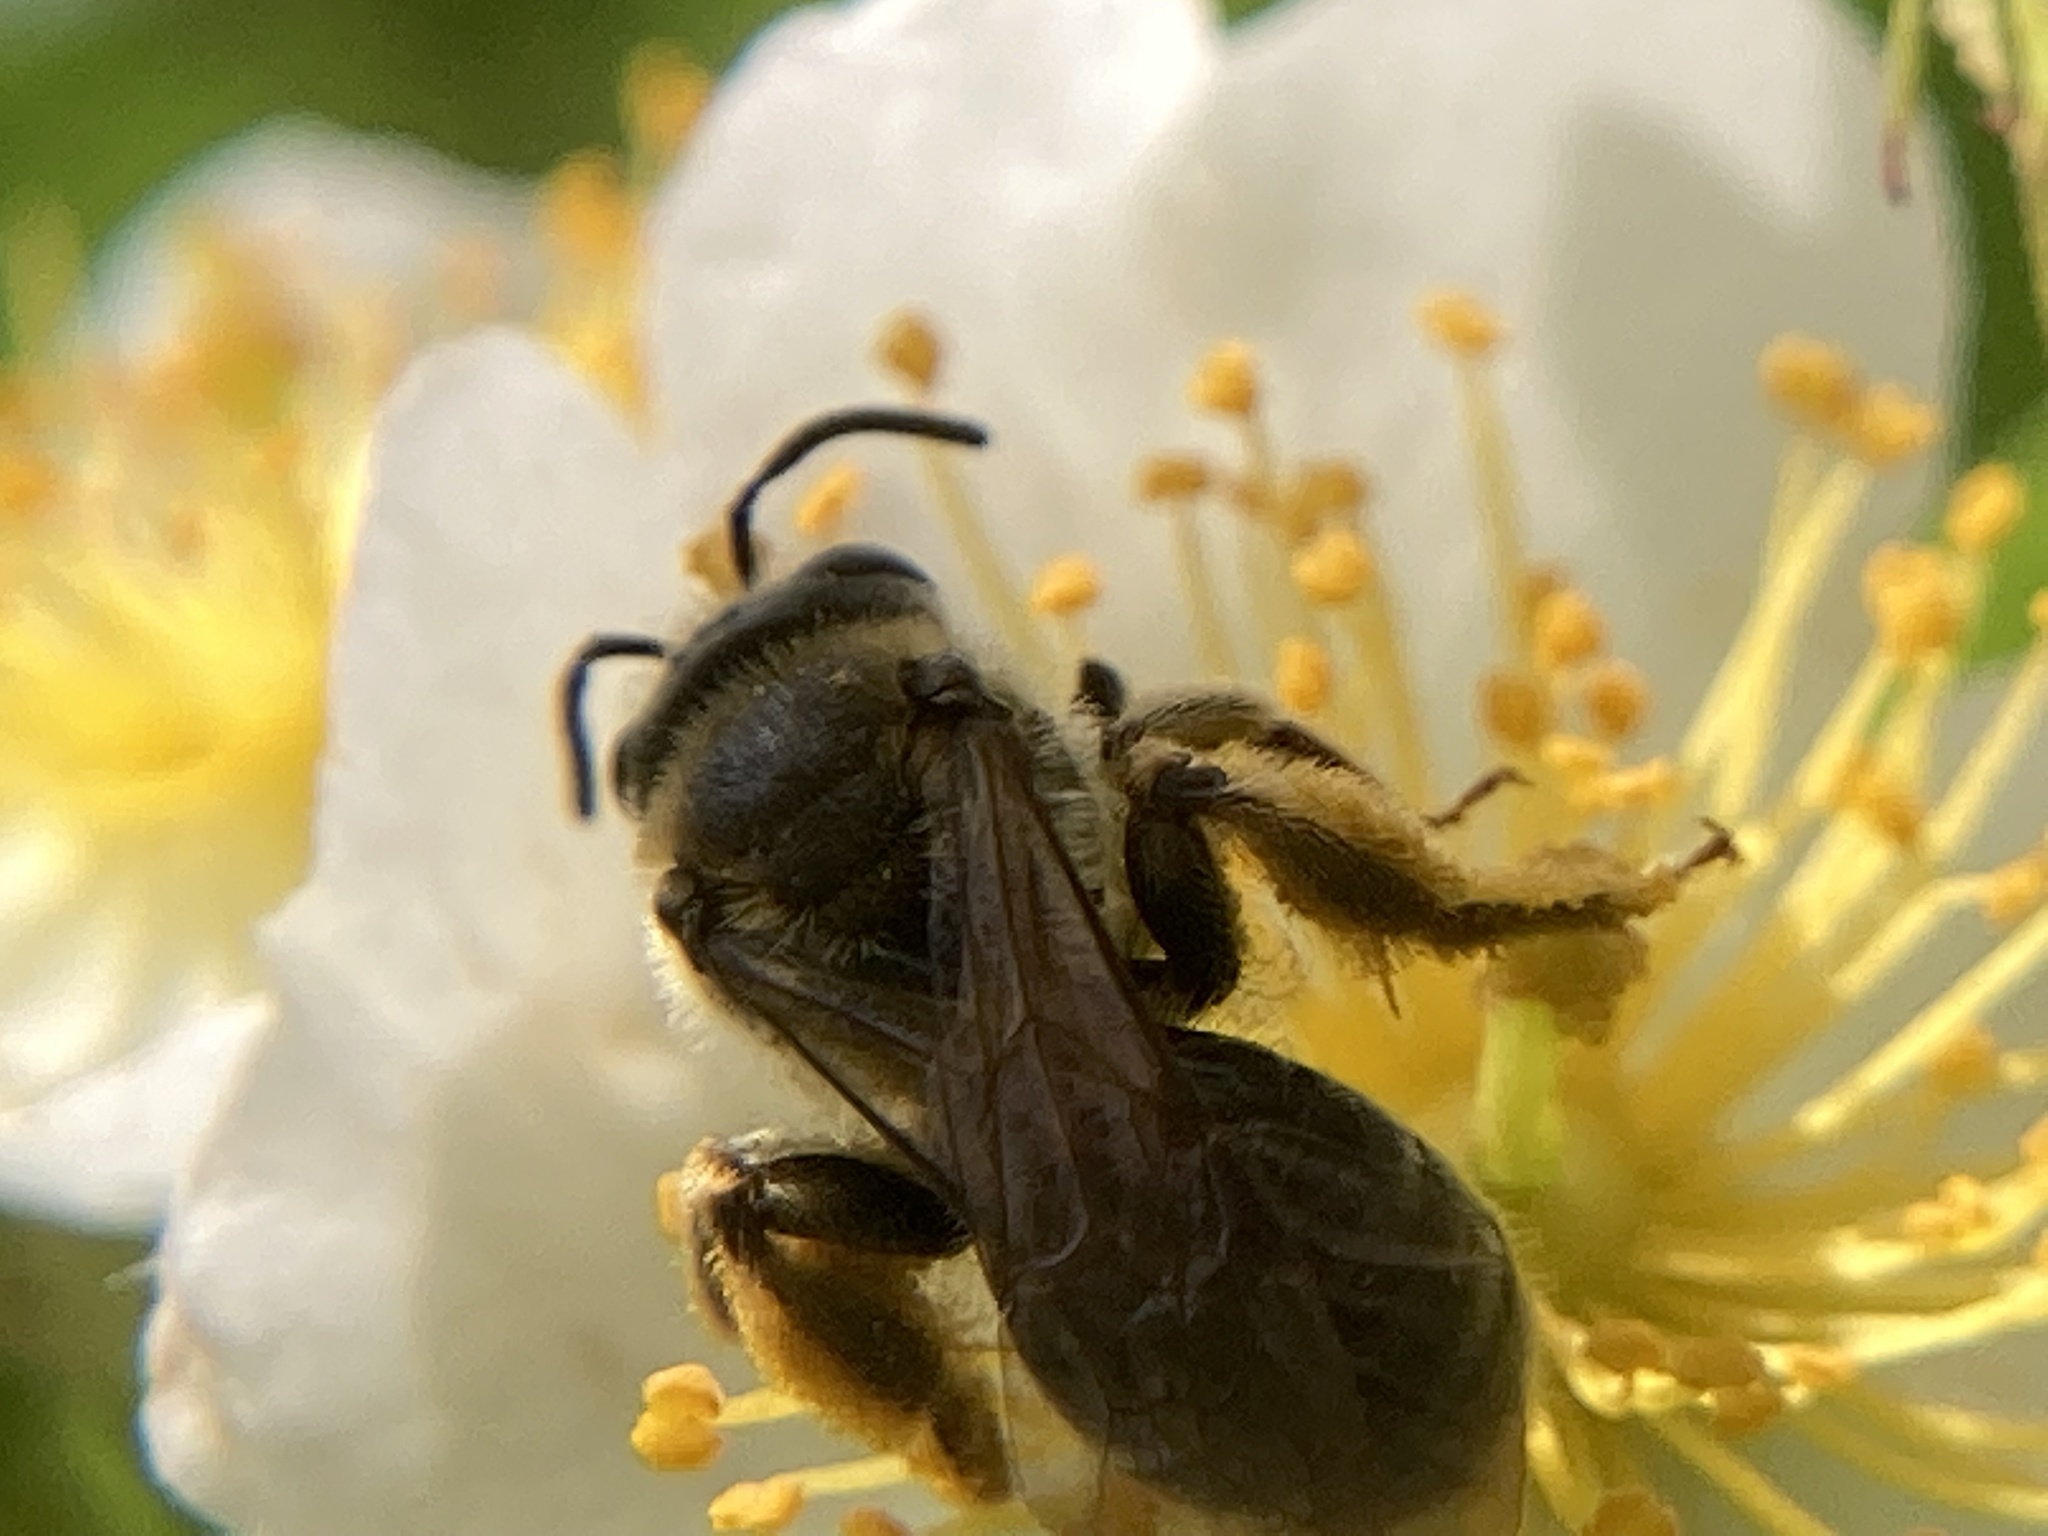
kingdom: Animalia
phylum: Arthropoda
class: Insecta
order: Hymenoptera
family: Andrenidae
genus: Andrena
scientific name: Andrena
